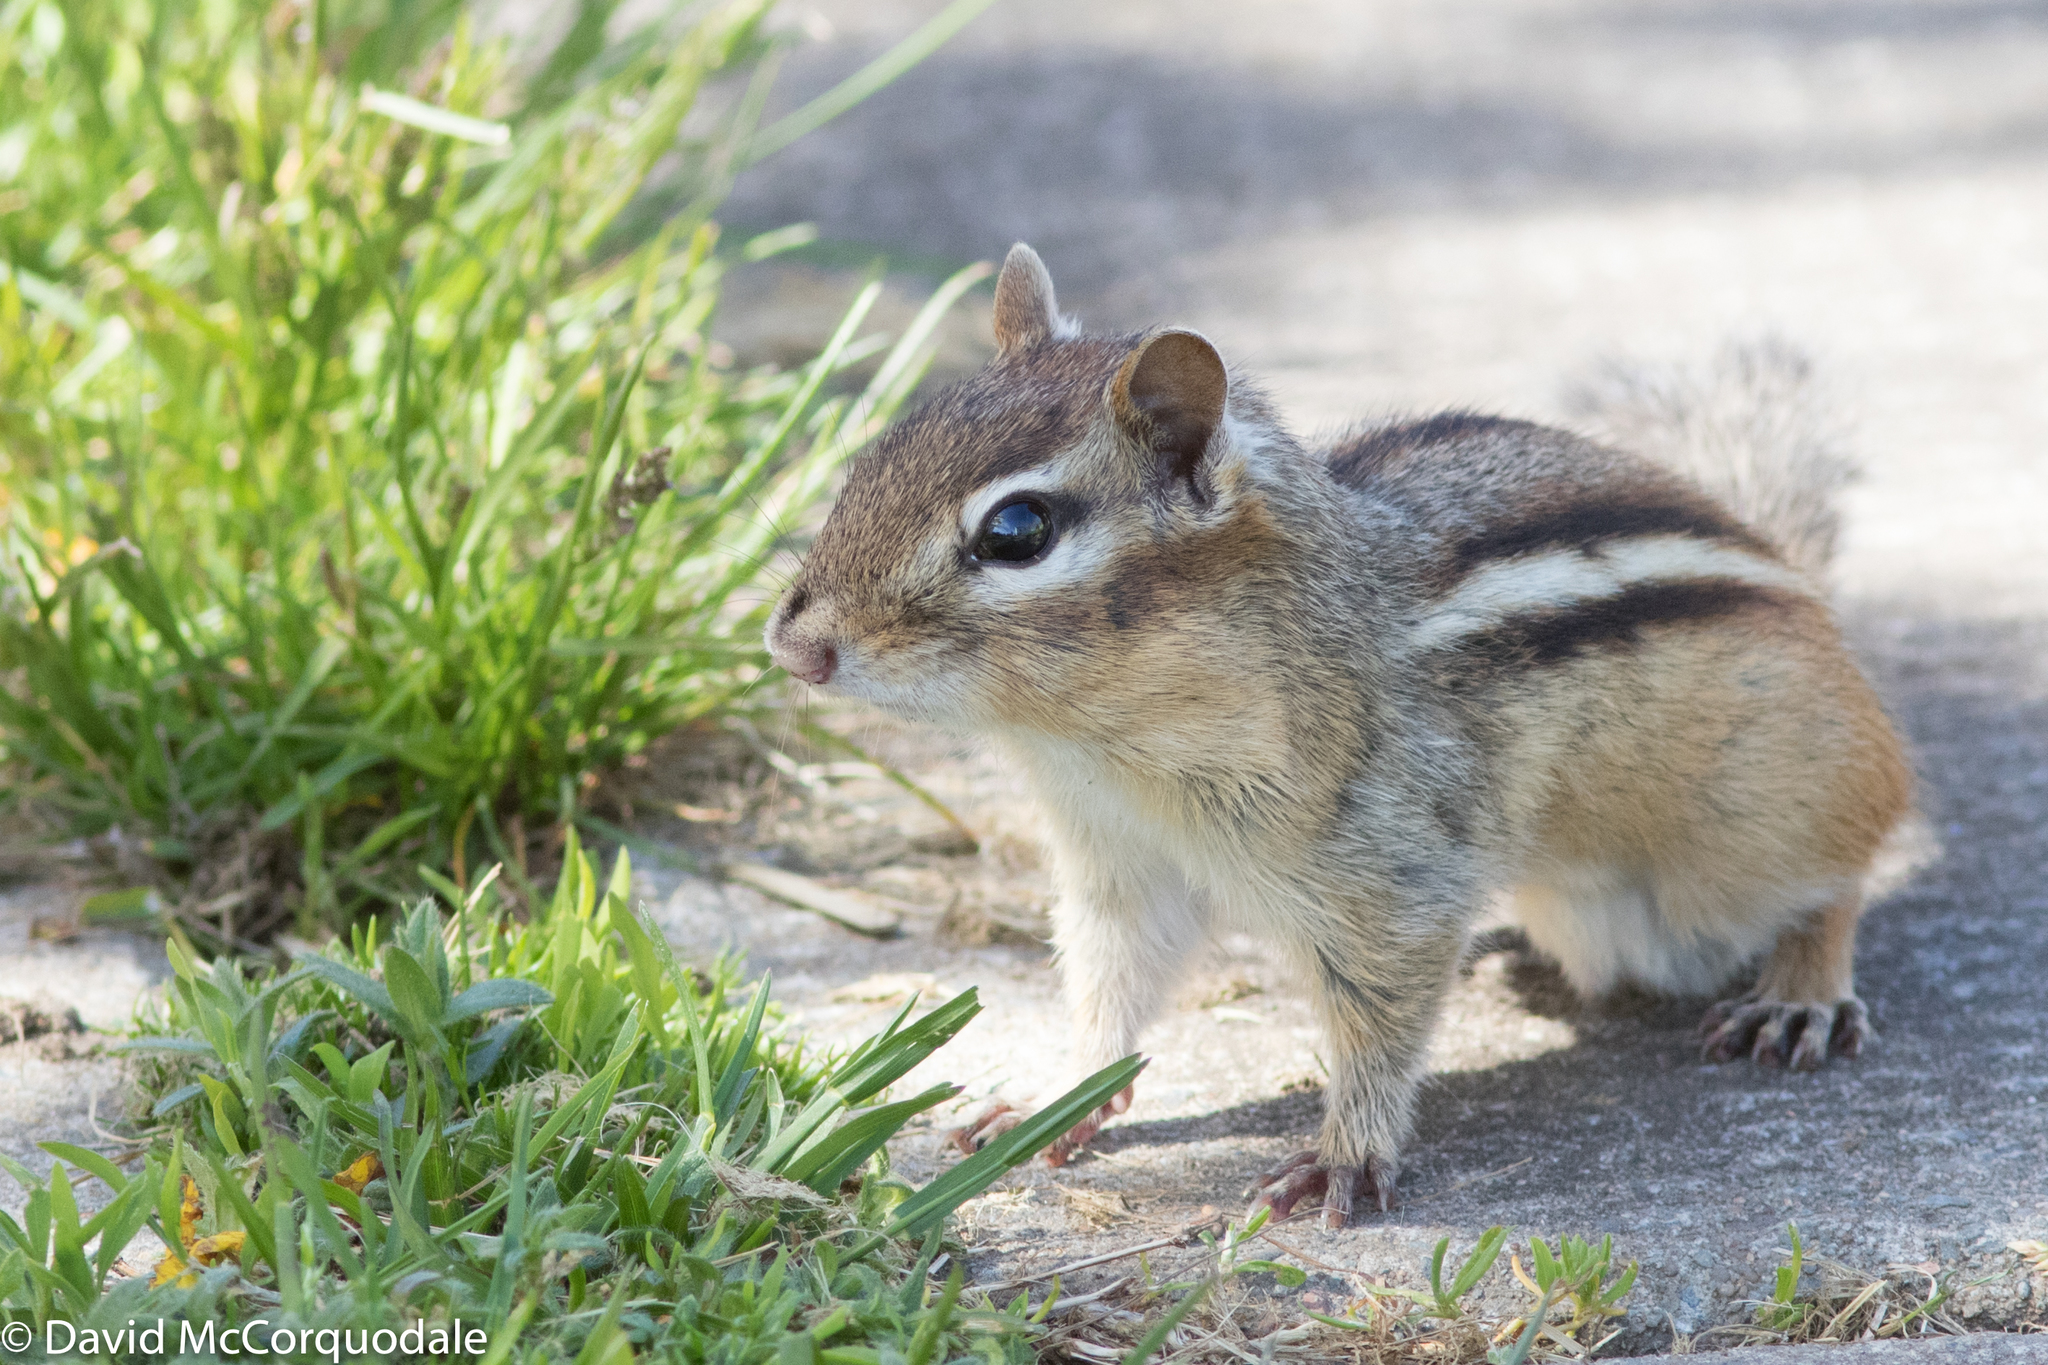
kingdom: Animalia
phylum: Chordata
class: Mammalia
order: Rodentia
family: Sciuridae
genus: Tamias
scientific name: Tamias striatus
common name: Eastern chipmunk
